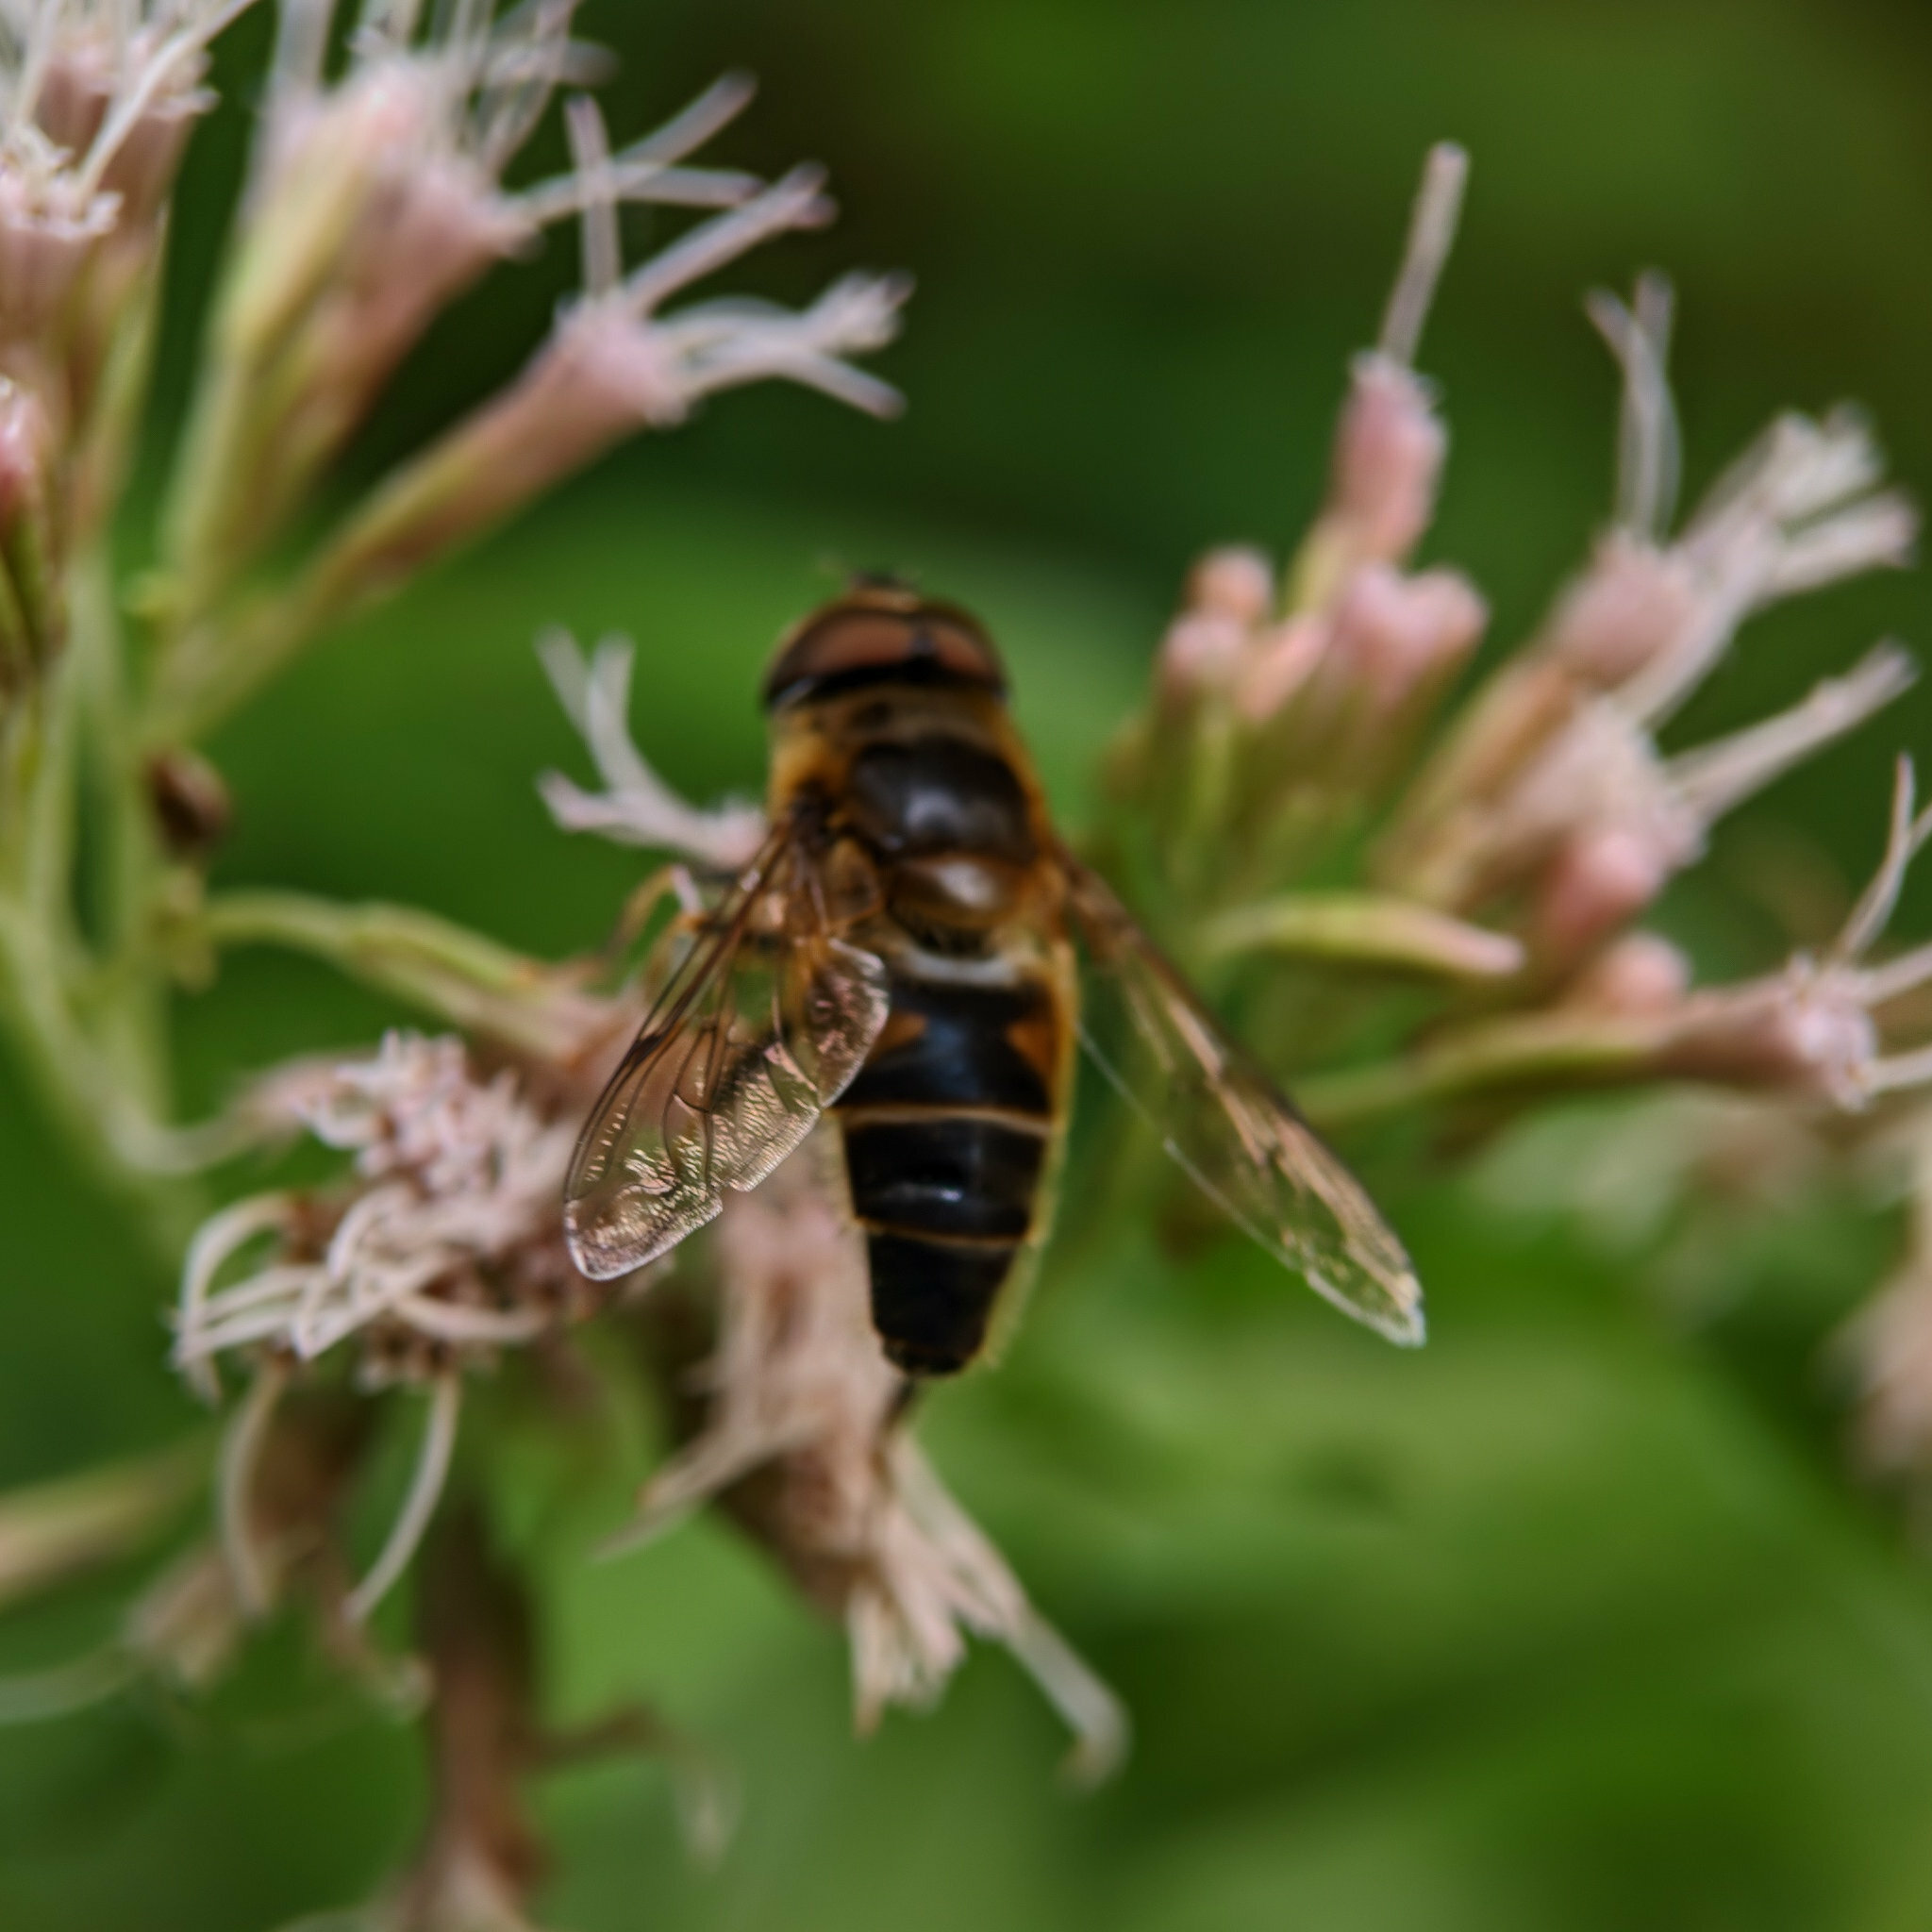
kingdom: Animalia
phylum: Arthropoda
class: Insecta
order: Diptera
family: Syrphidae
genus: Eristalis
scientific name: Eristalis pertinax
